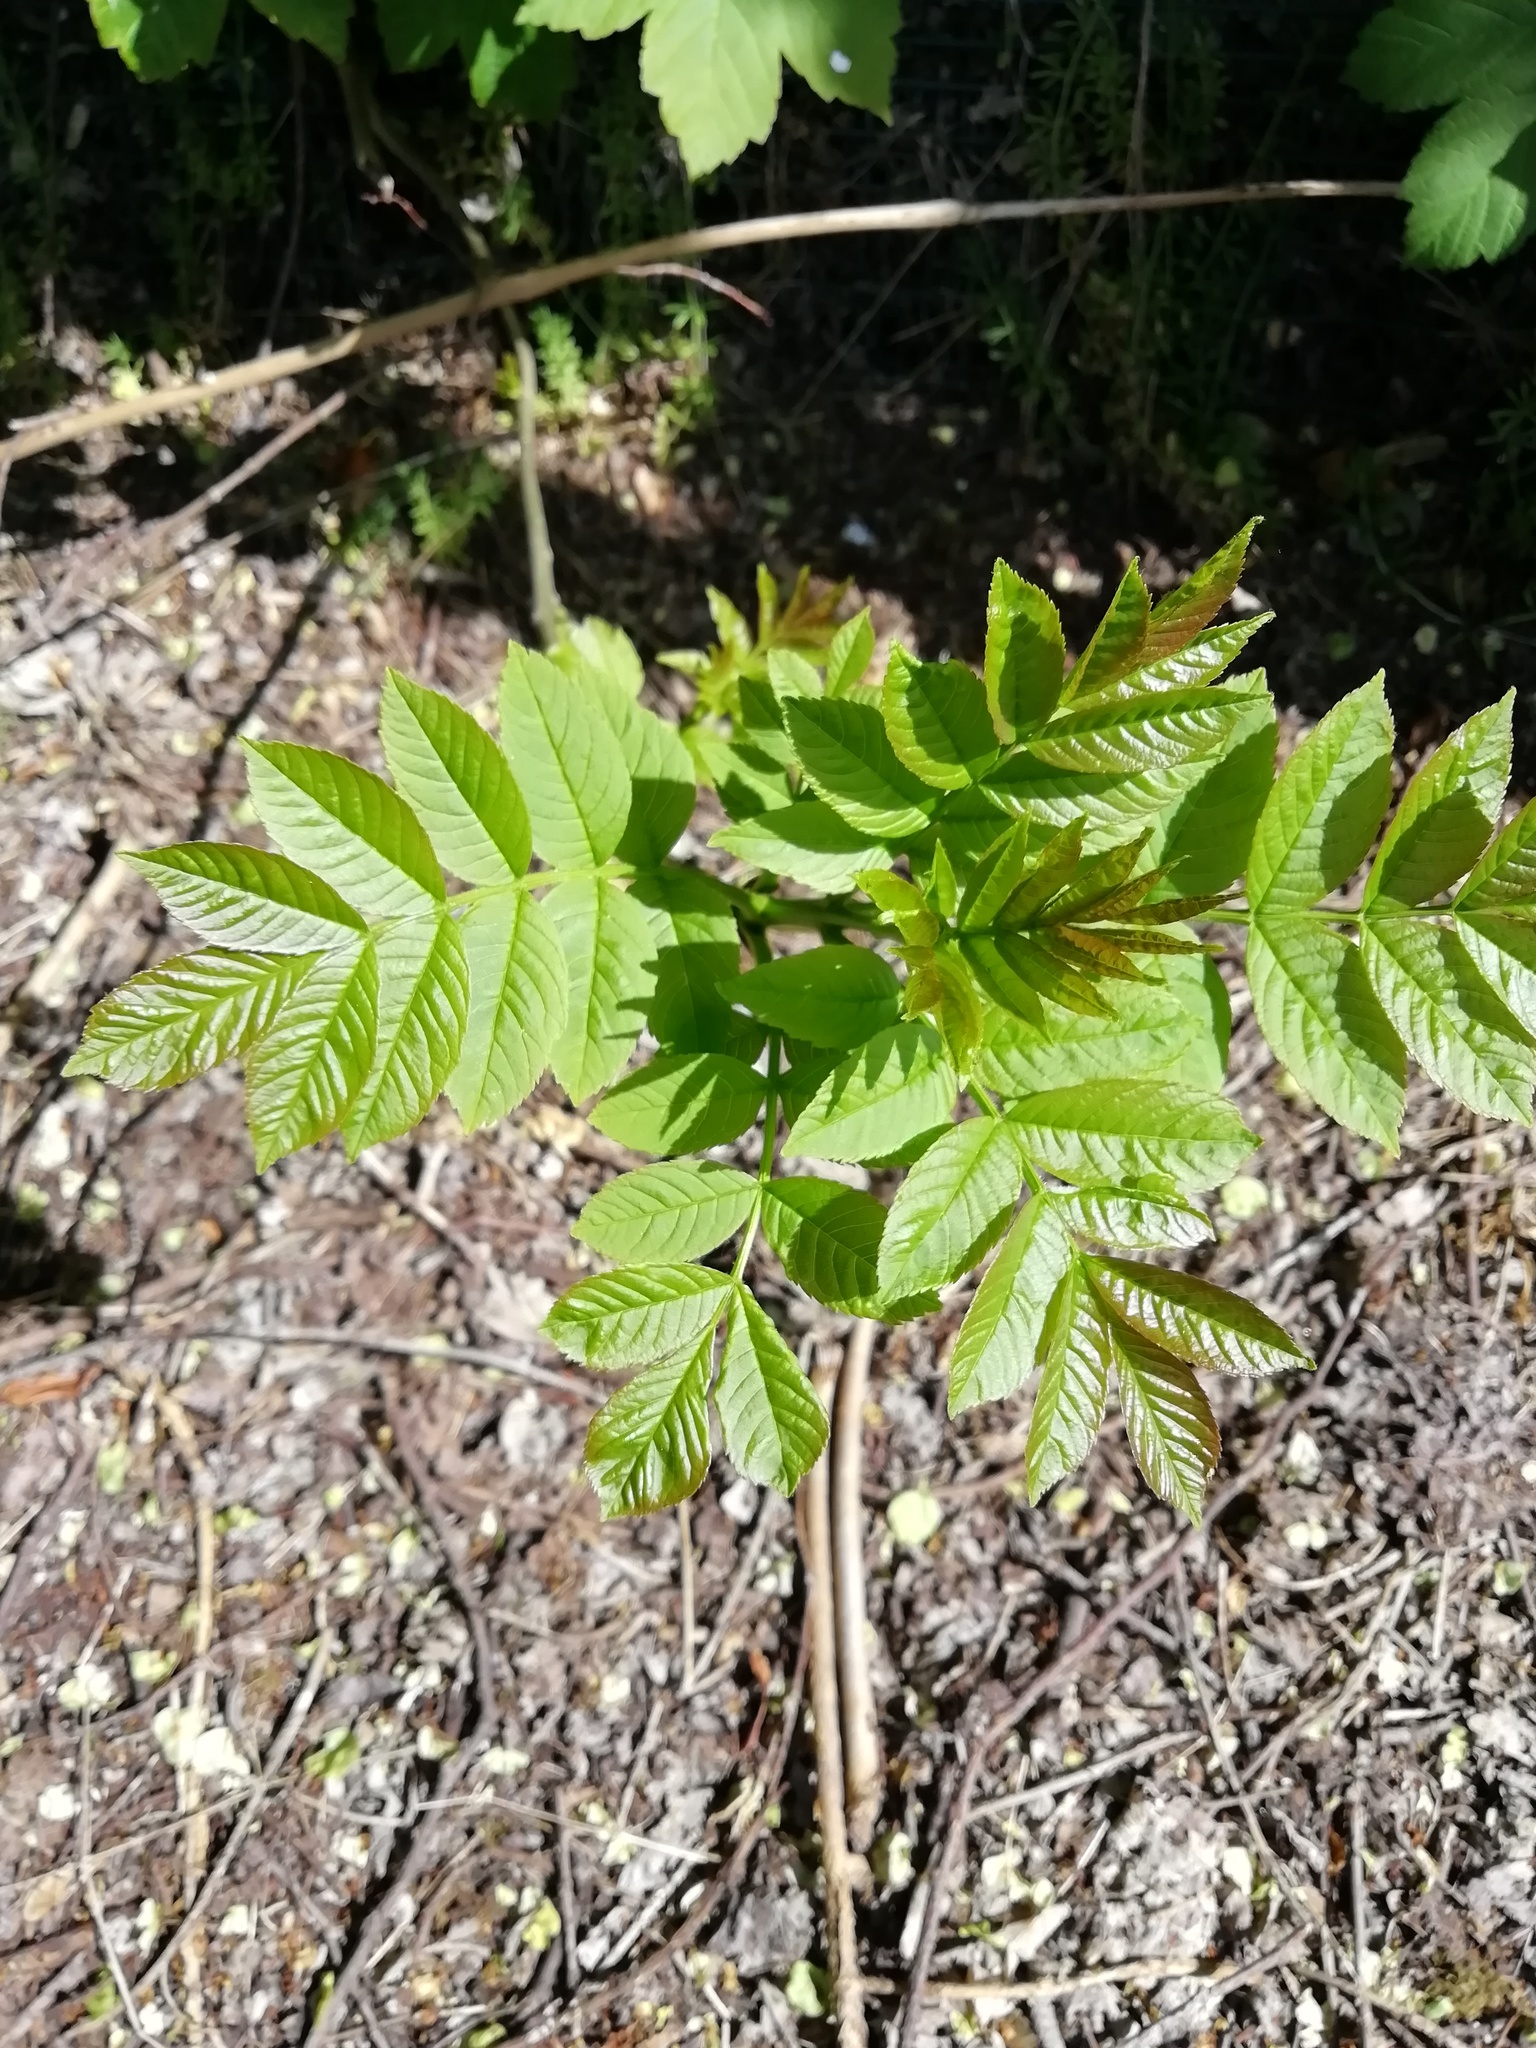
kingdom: Plantae
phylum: Tracheophyta
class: Magnoliopsida
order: Lamiales
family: Oleaceae
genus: Fraxinus
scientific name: Fraxinus excelsior
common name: European ash
